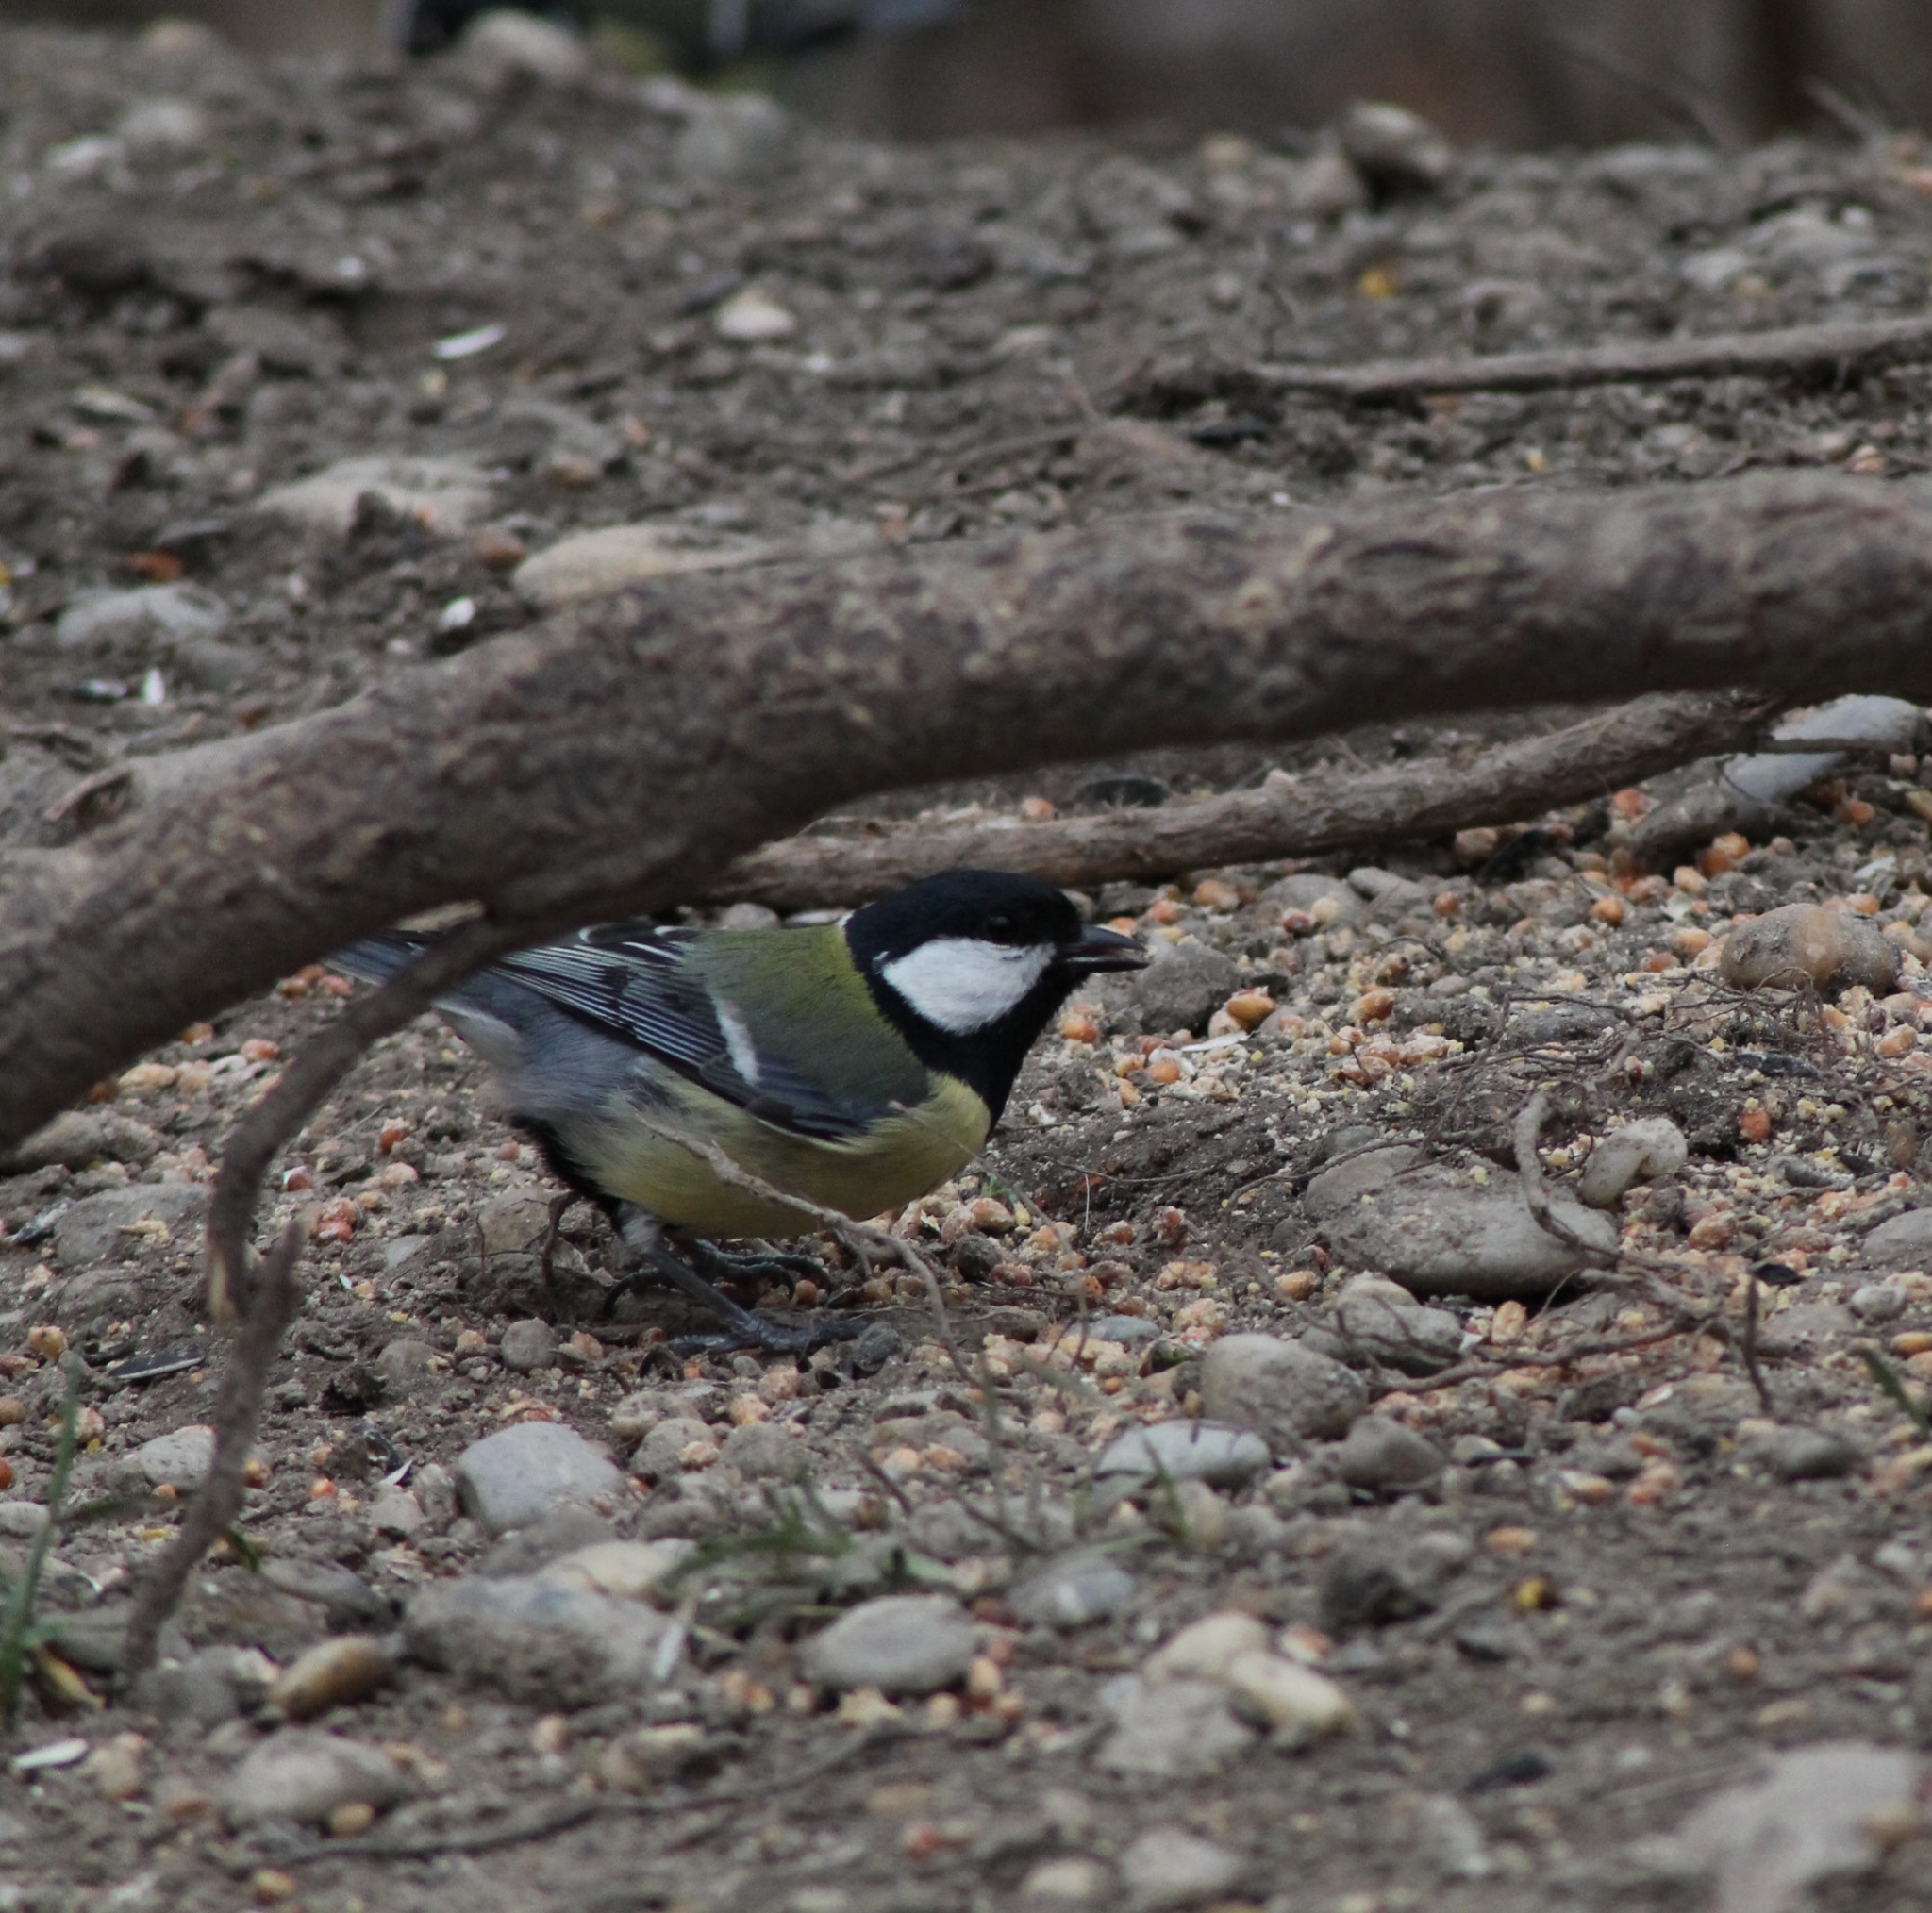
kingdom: Animalia
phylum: Chordata
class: Aves
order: Passeriformes
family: Paridae
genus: Parus
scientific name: Parus major
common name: Great tit
